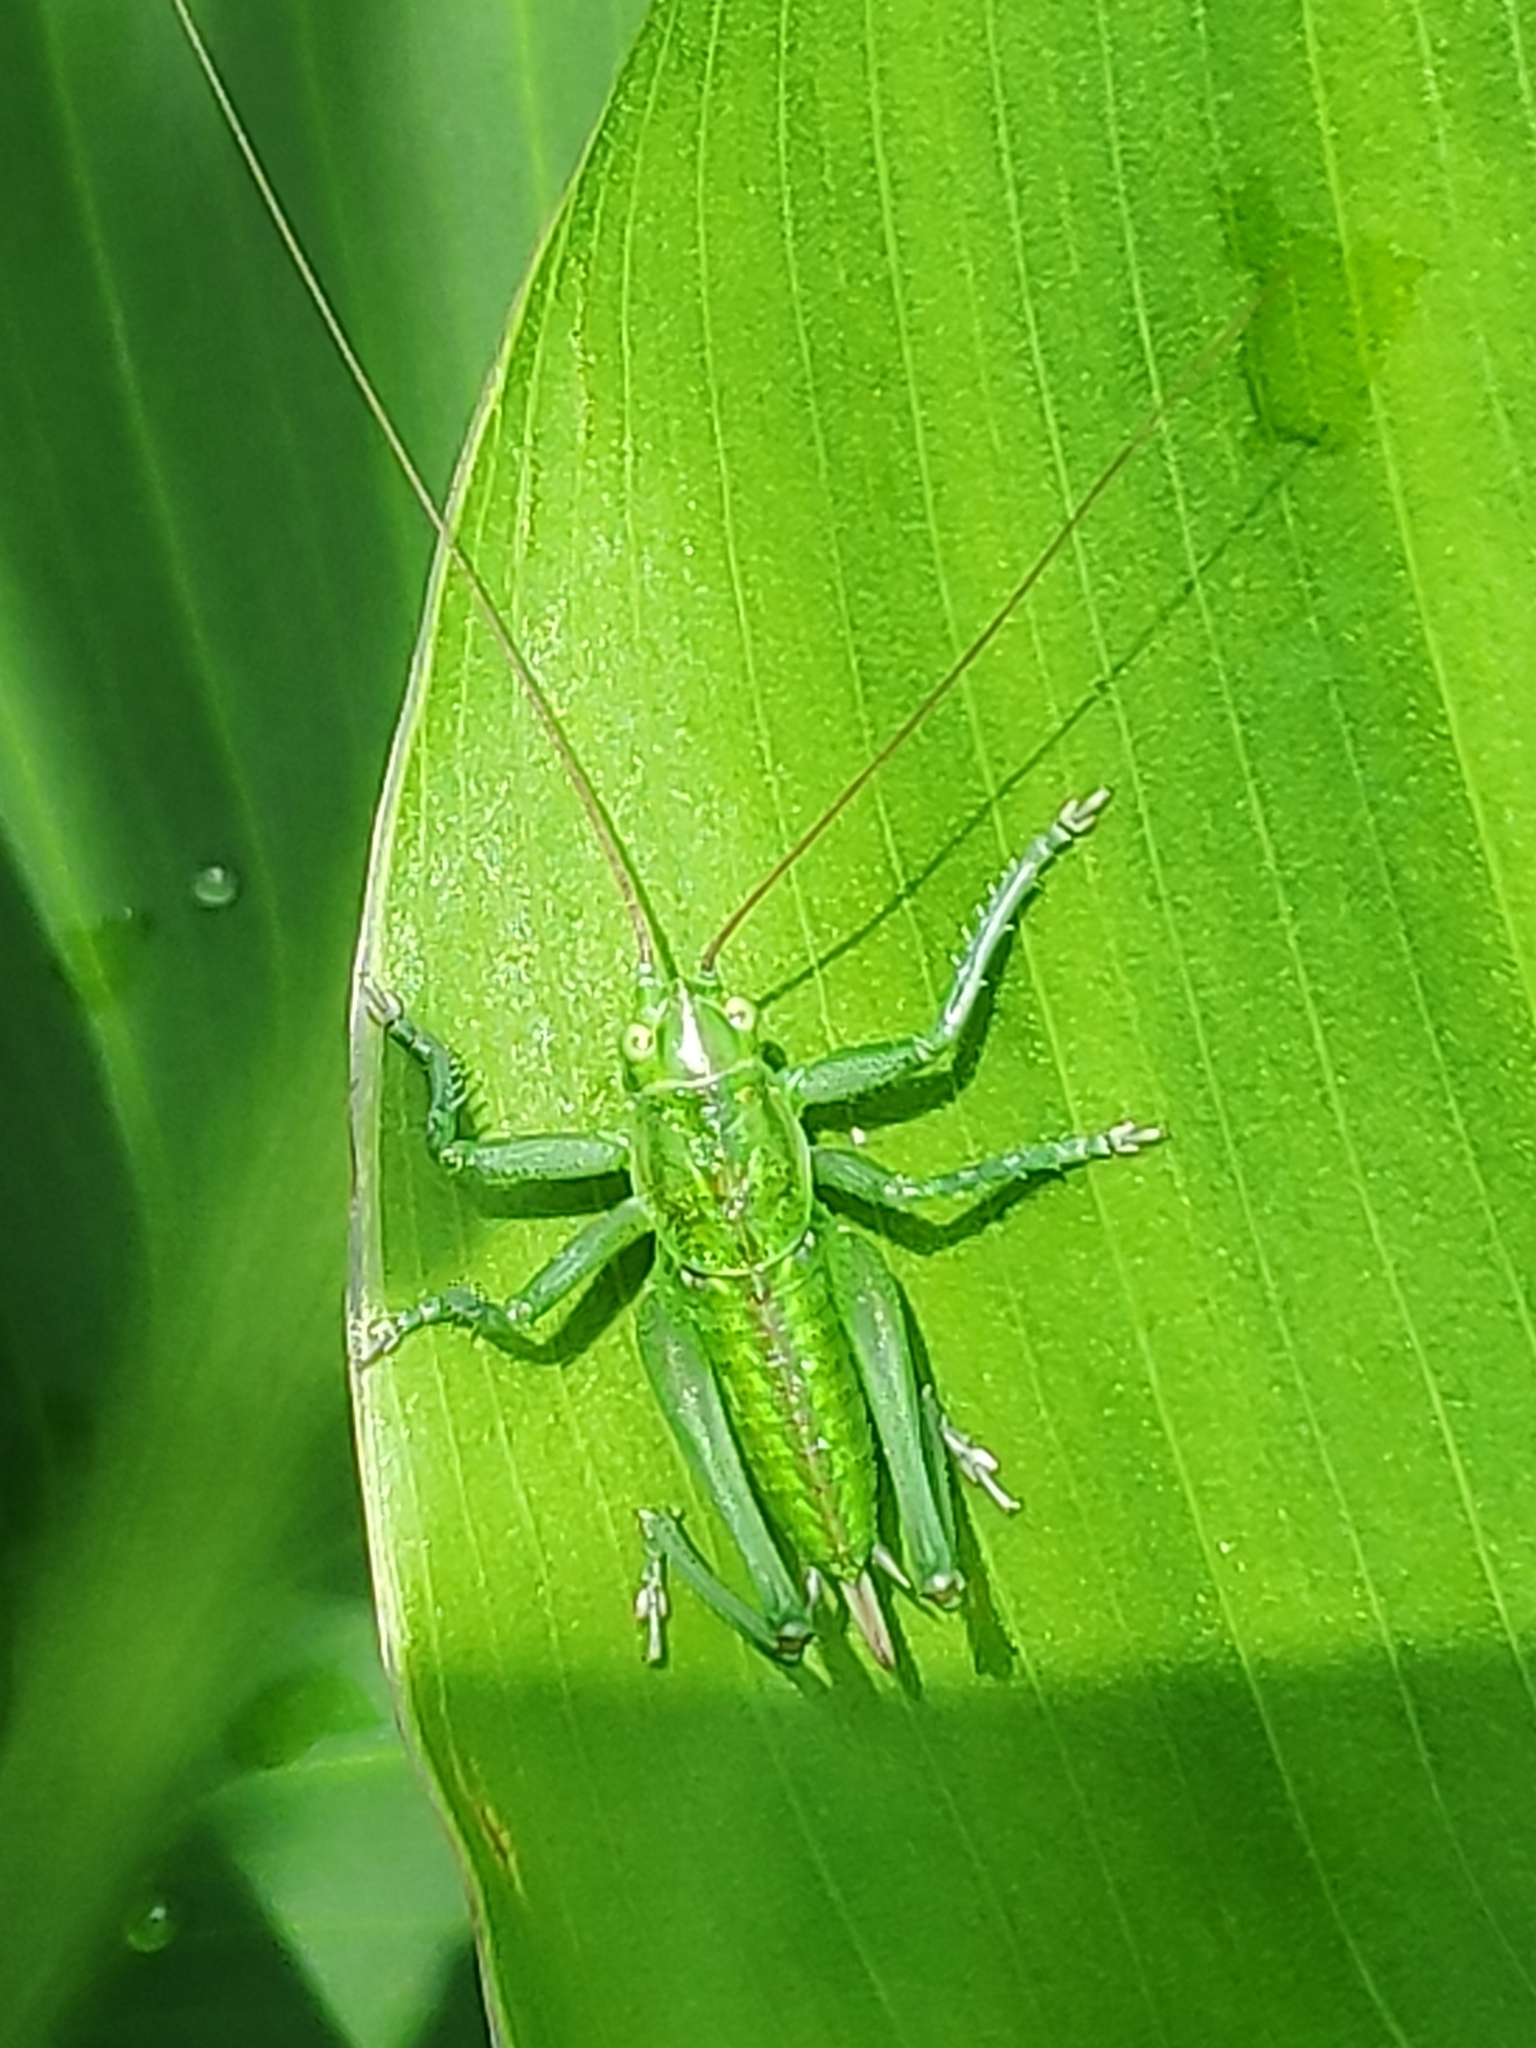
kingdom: Animalia
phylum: Arthropoda
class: Insecta
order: Orthoptera
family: Tettigoniidae
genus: Tettigonia
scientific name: Tettigonia viridissima
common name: Great green bush-cricket
